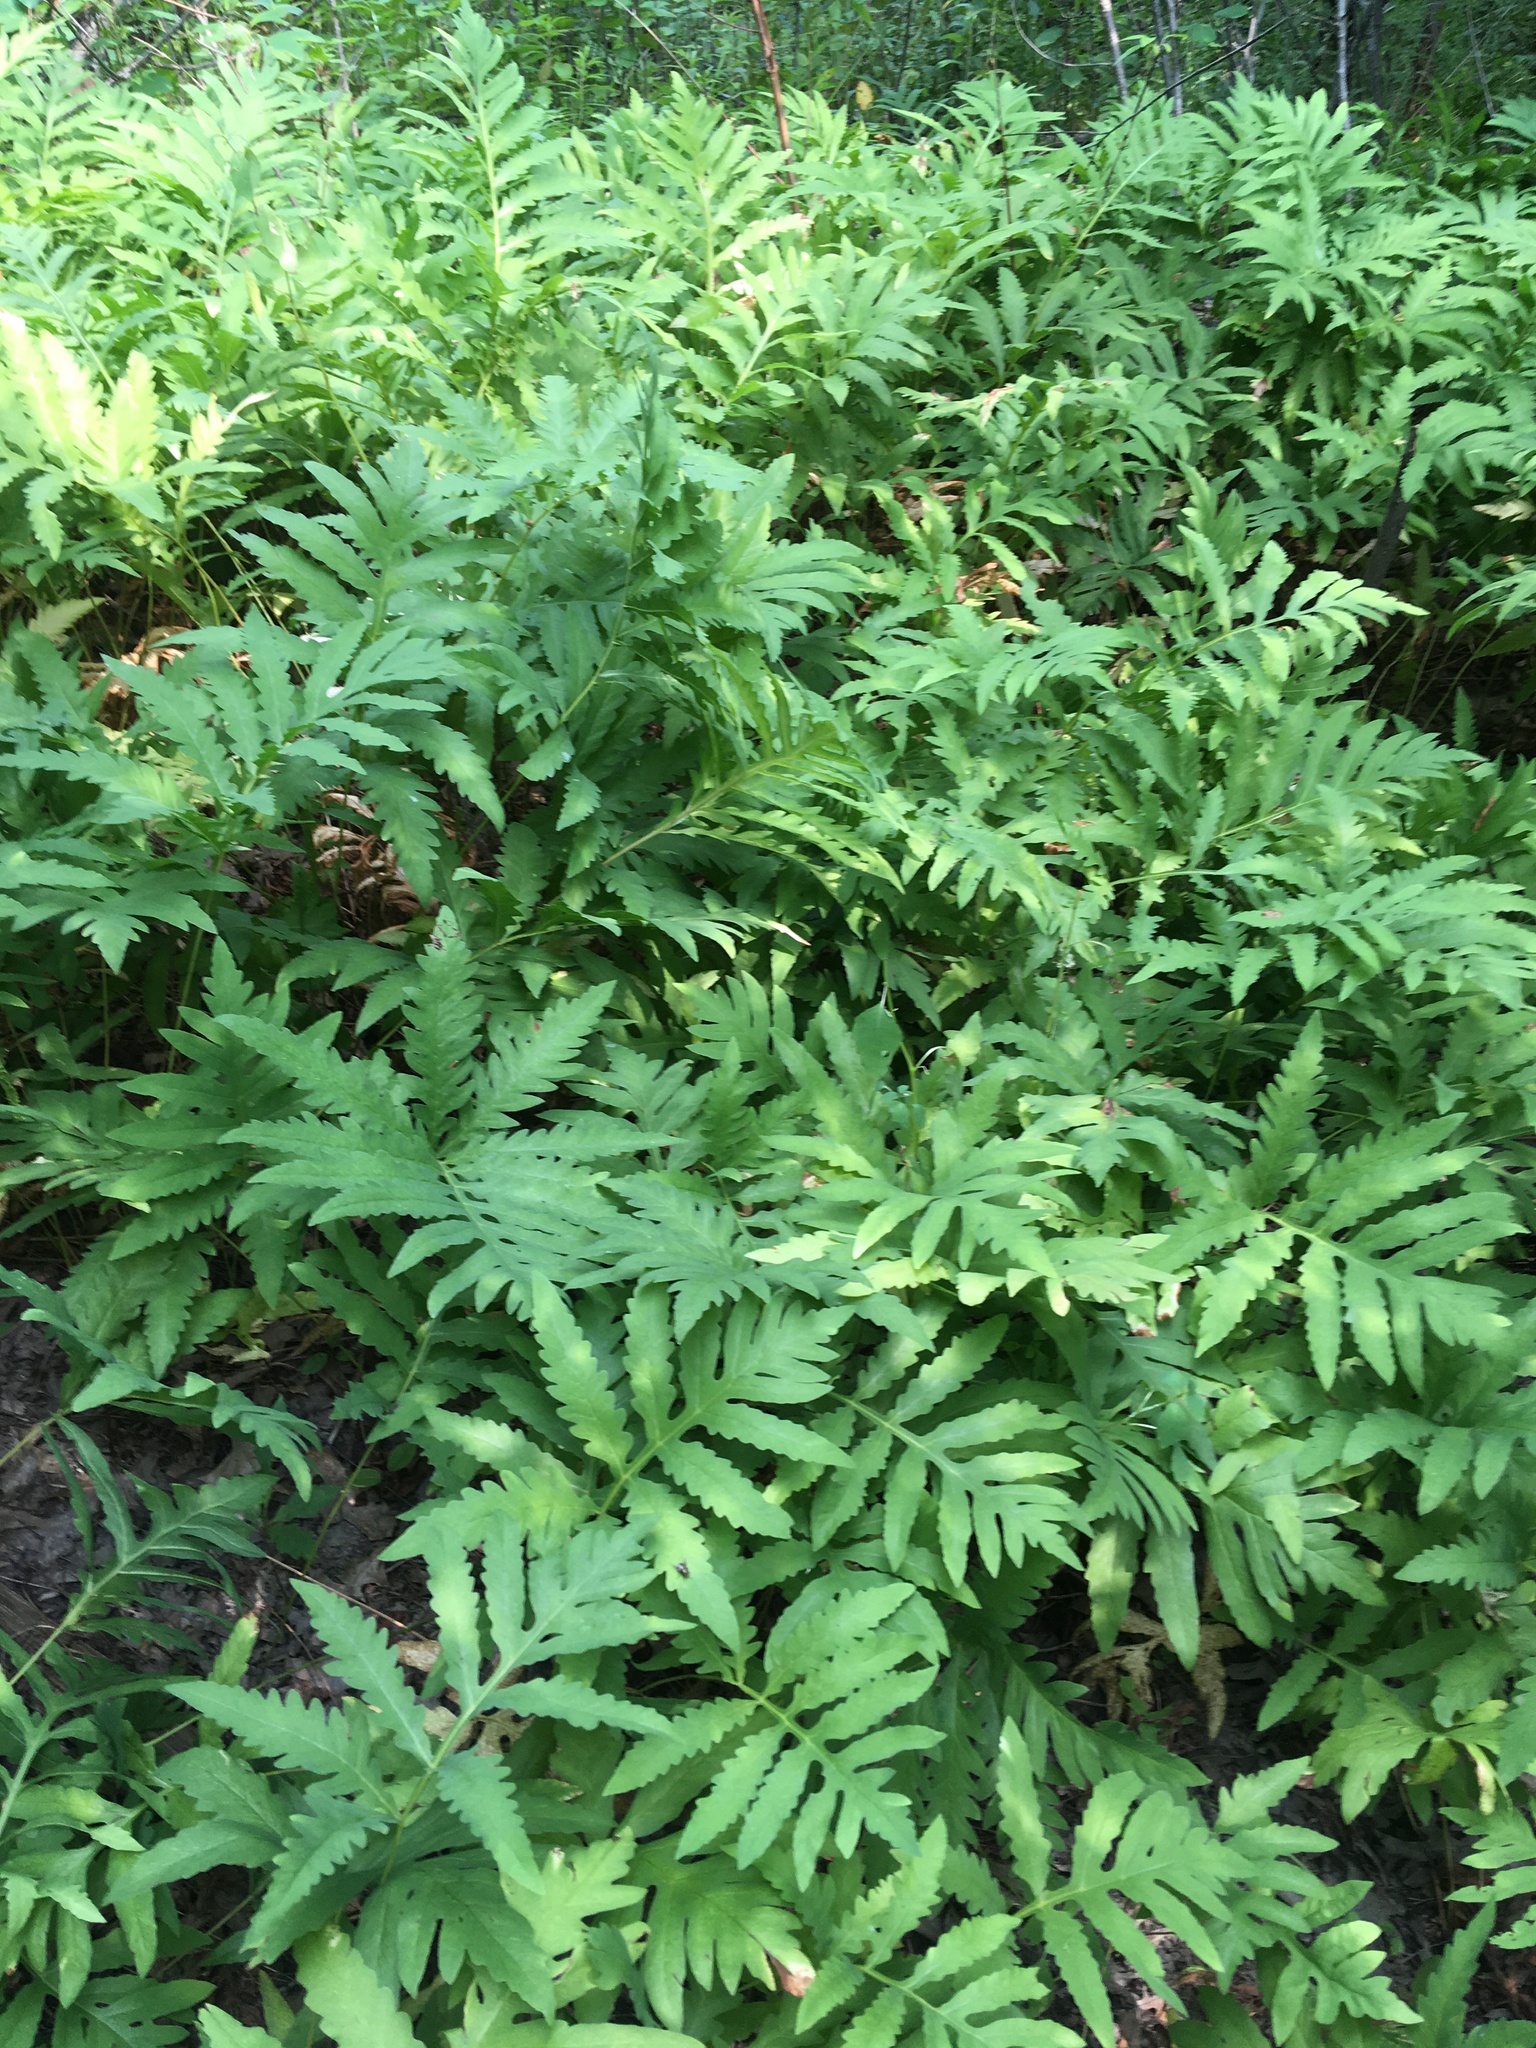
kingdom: Plantae
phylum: Tracheophyta
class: Polypodiopsida
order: Polypodiales
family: Onocleaceae
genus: Onoclea
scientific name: Onoclea sensibilis
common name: Sensitive fern
